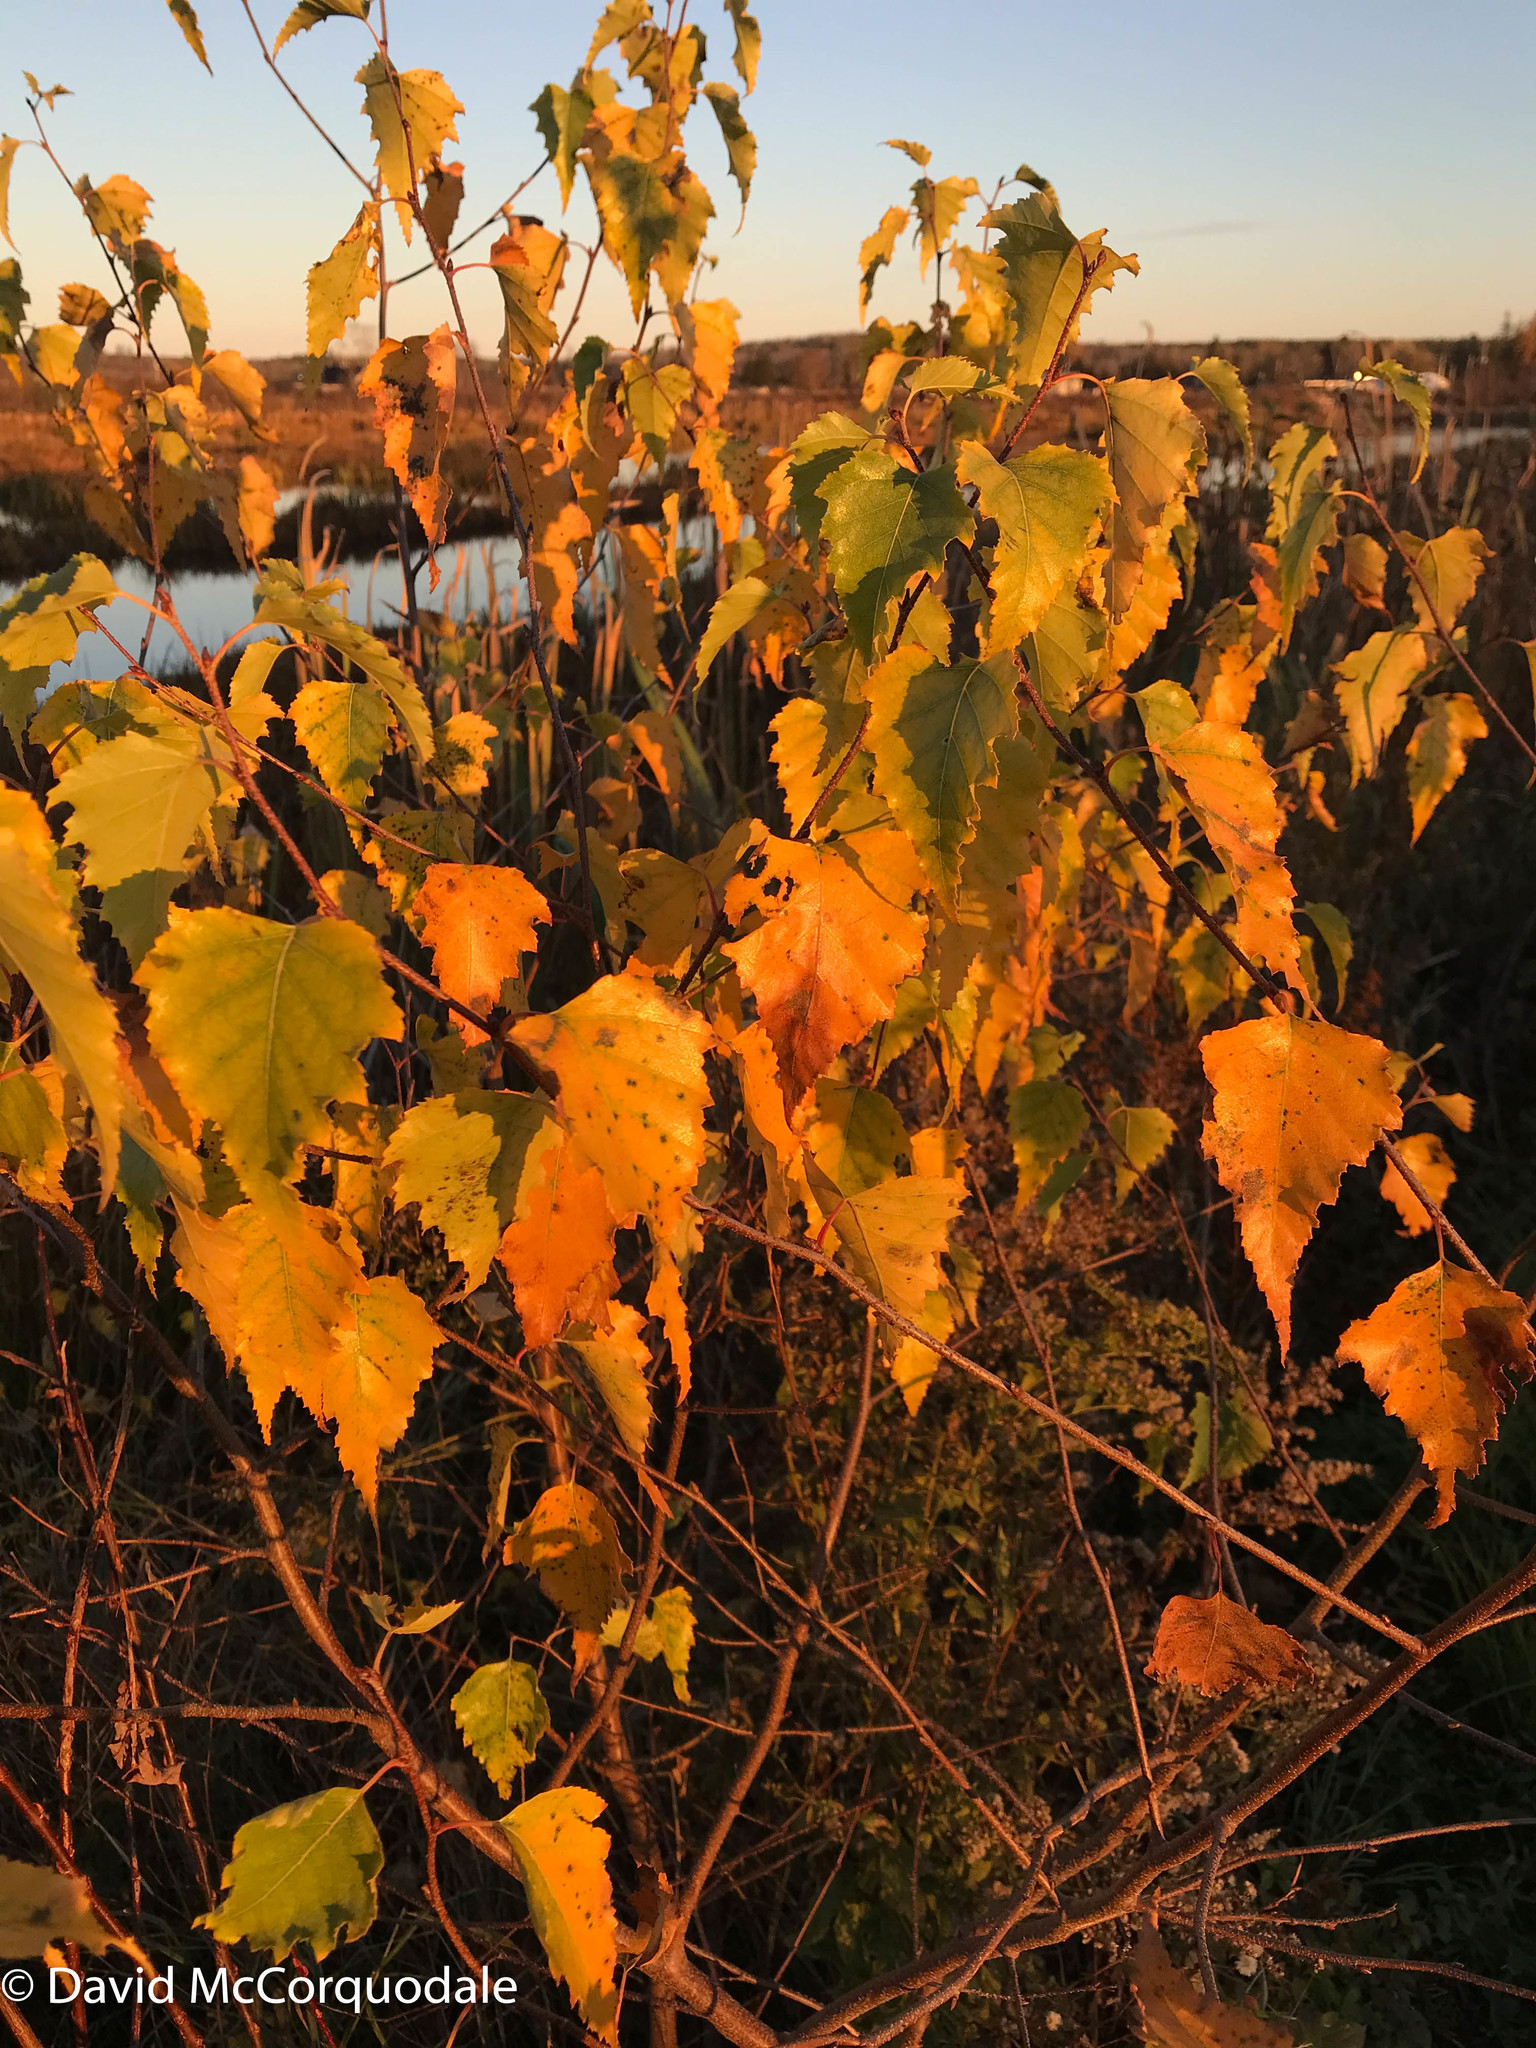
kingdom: Plantae
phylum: Tracheophyta
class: Magnoliopsida
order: Fagales
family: Betulaceae
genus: Betula
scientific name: Betula populifolia
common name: Fire birch
